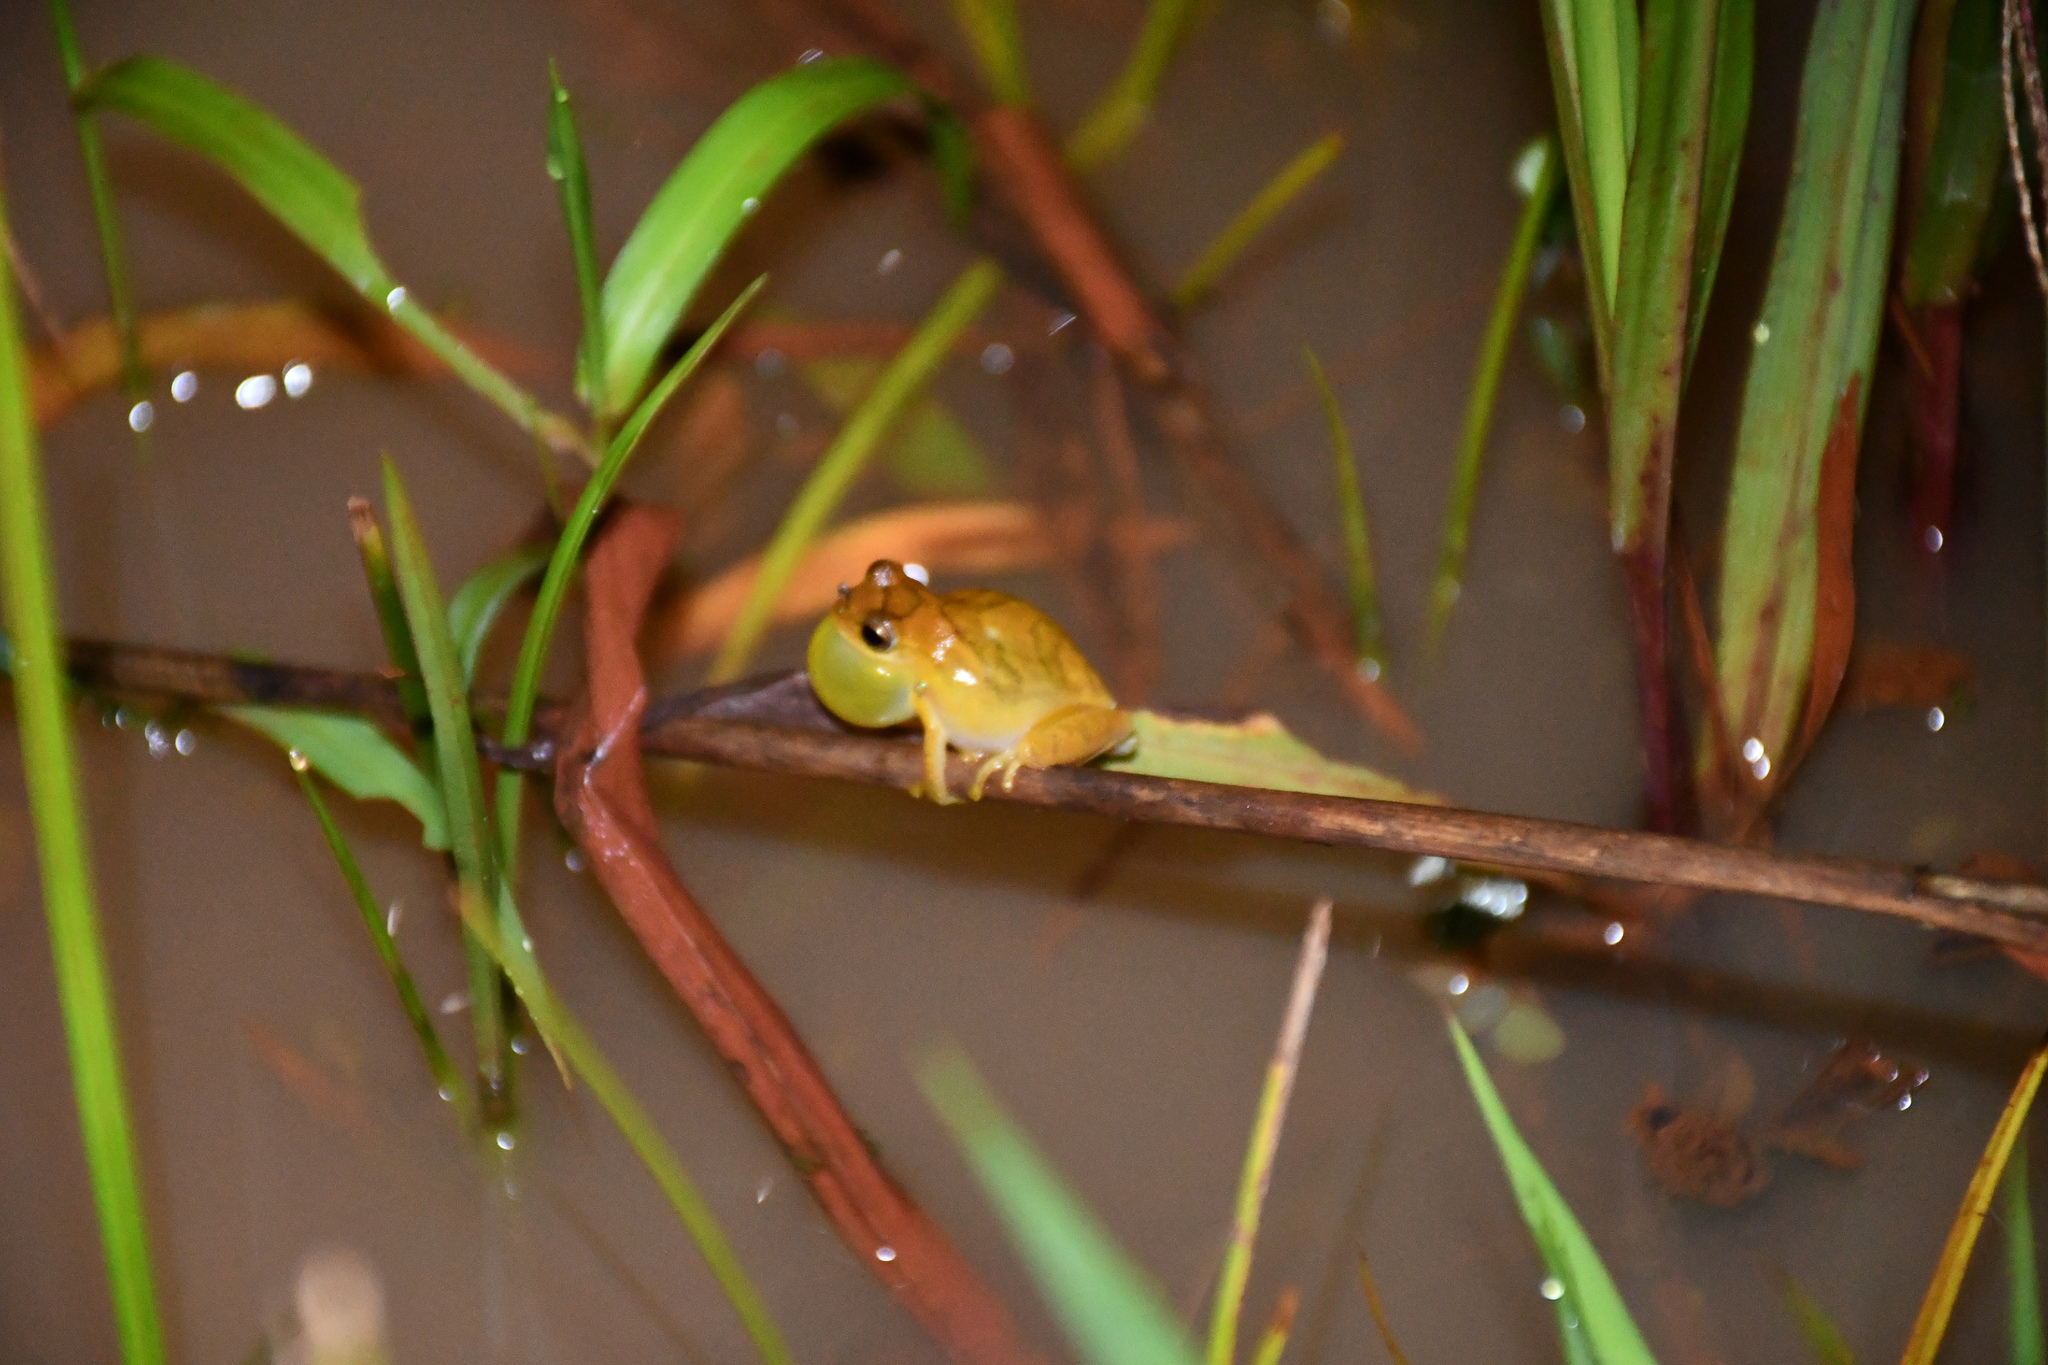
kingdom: Animalia
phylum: Chordata
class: Amphibia
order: Anura
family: Hylidae
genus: Dendropsophus
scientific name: Dendropsophus minutus
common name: Lesser treefrog
